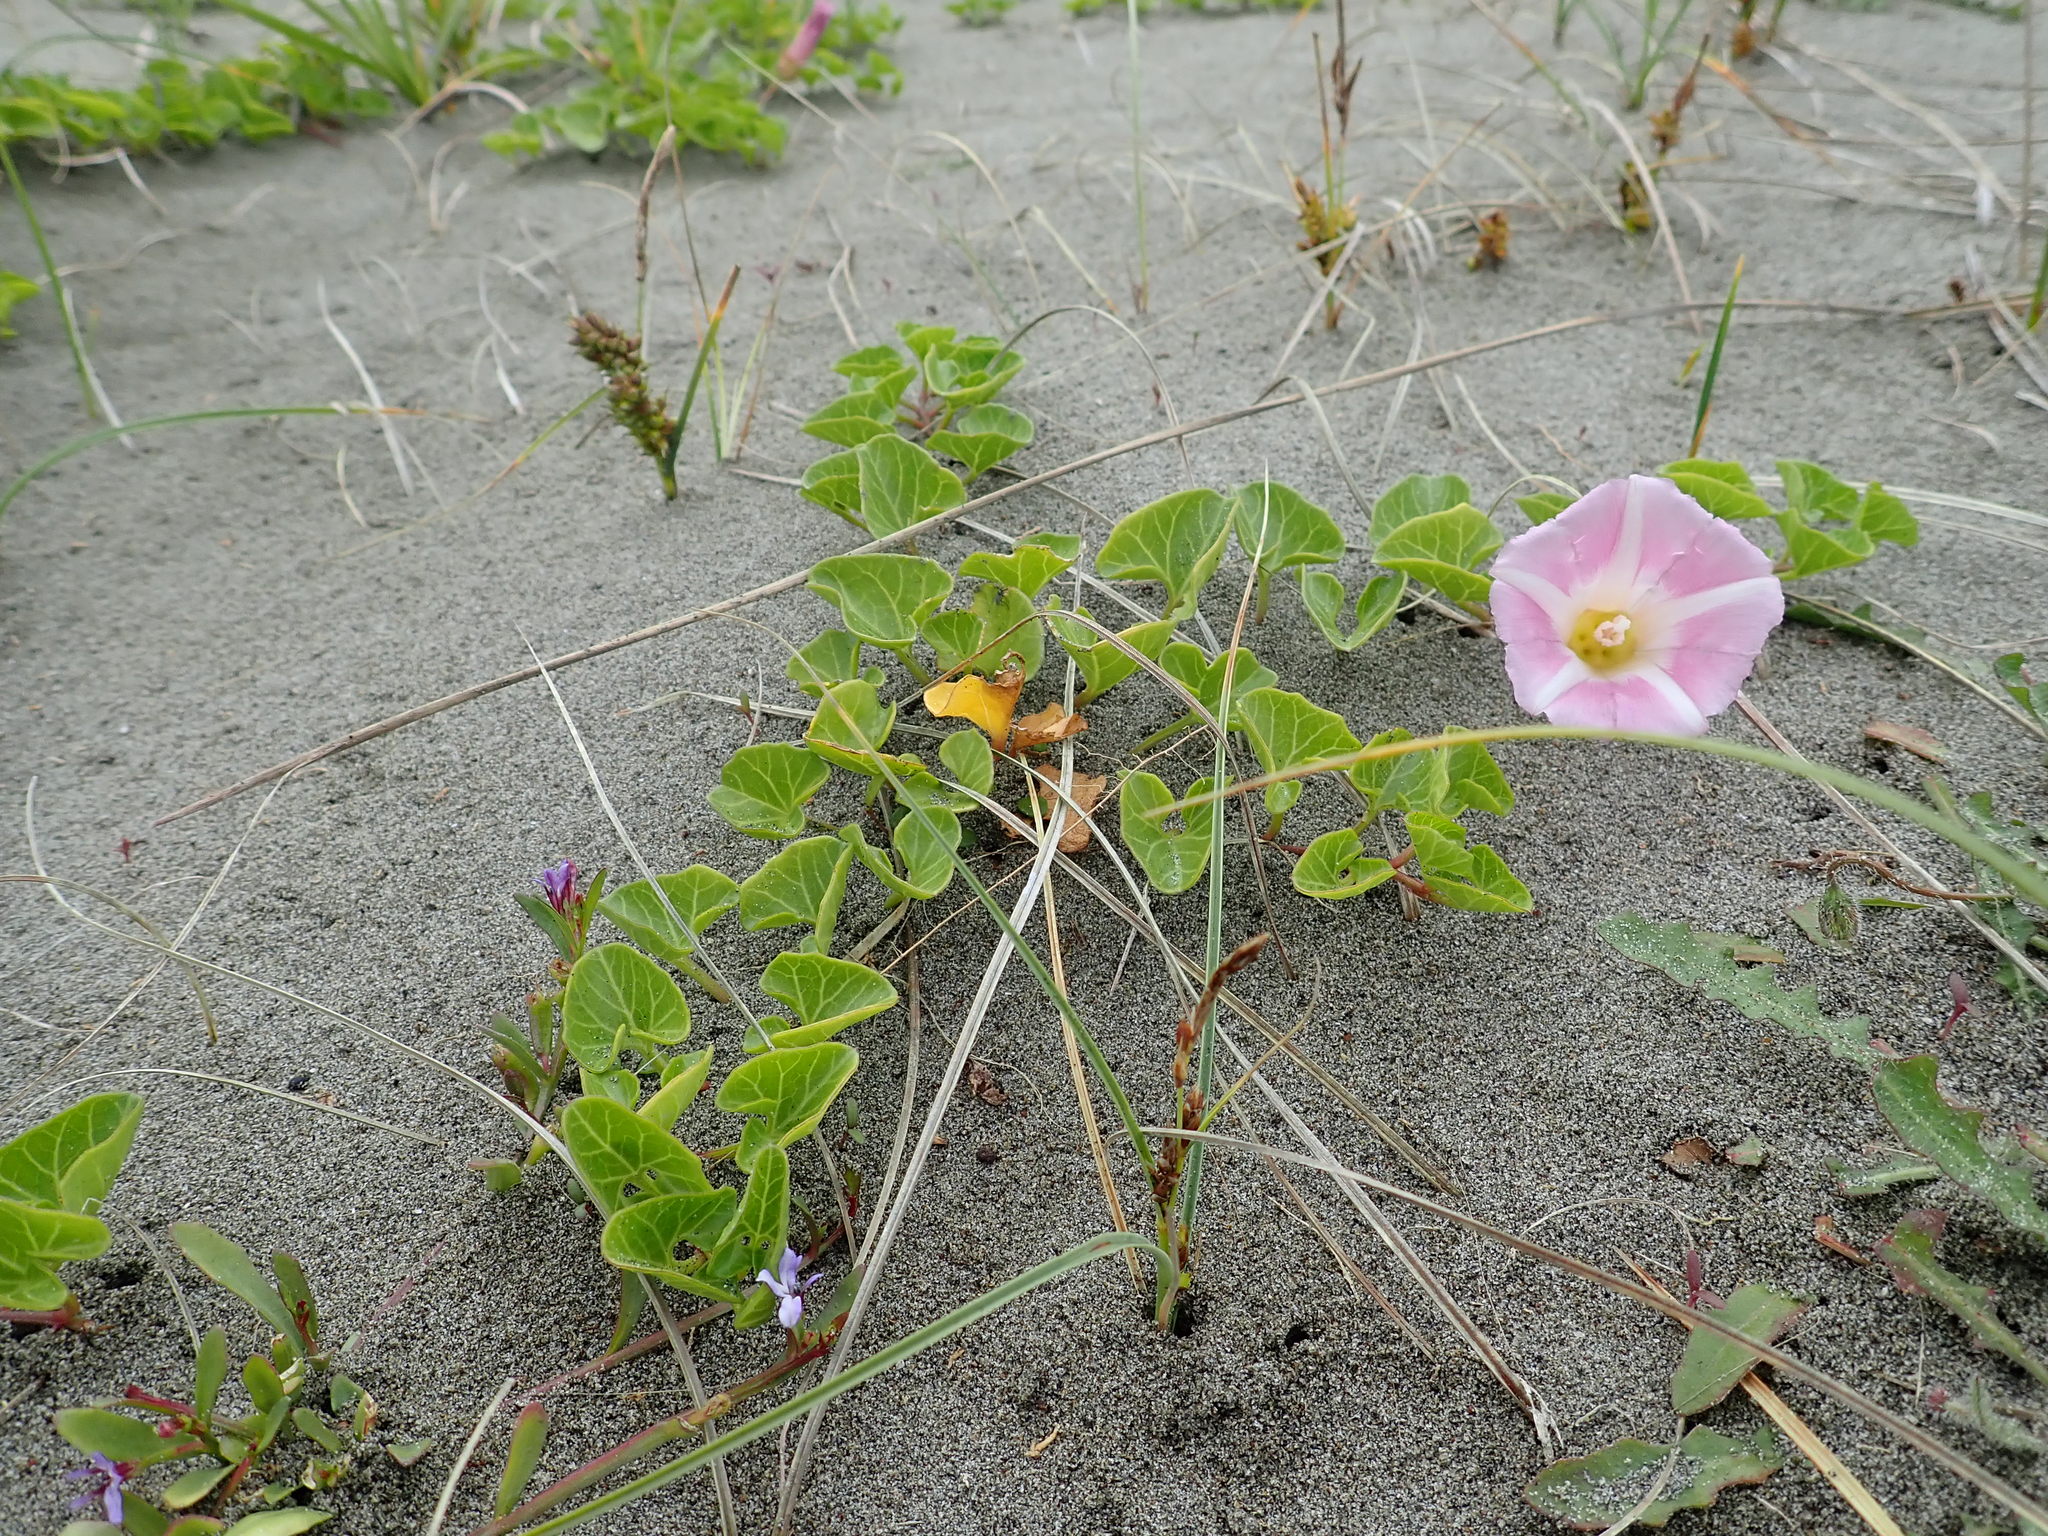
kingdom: Plantae
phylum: Tracheophyta
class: Magnoliopsida
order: Solanales
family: Convolvulaceae
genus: Calystegia
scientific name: Calystegia soldanella
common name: Sea bindweed
